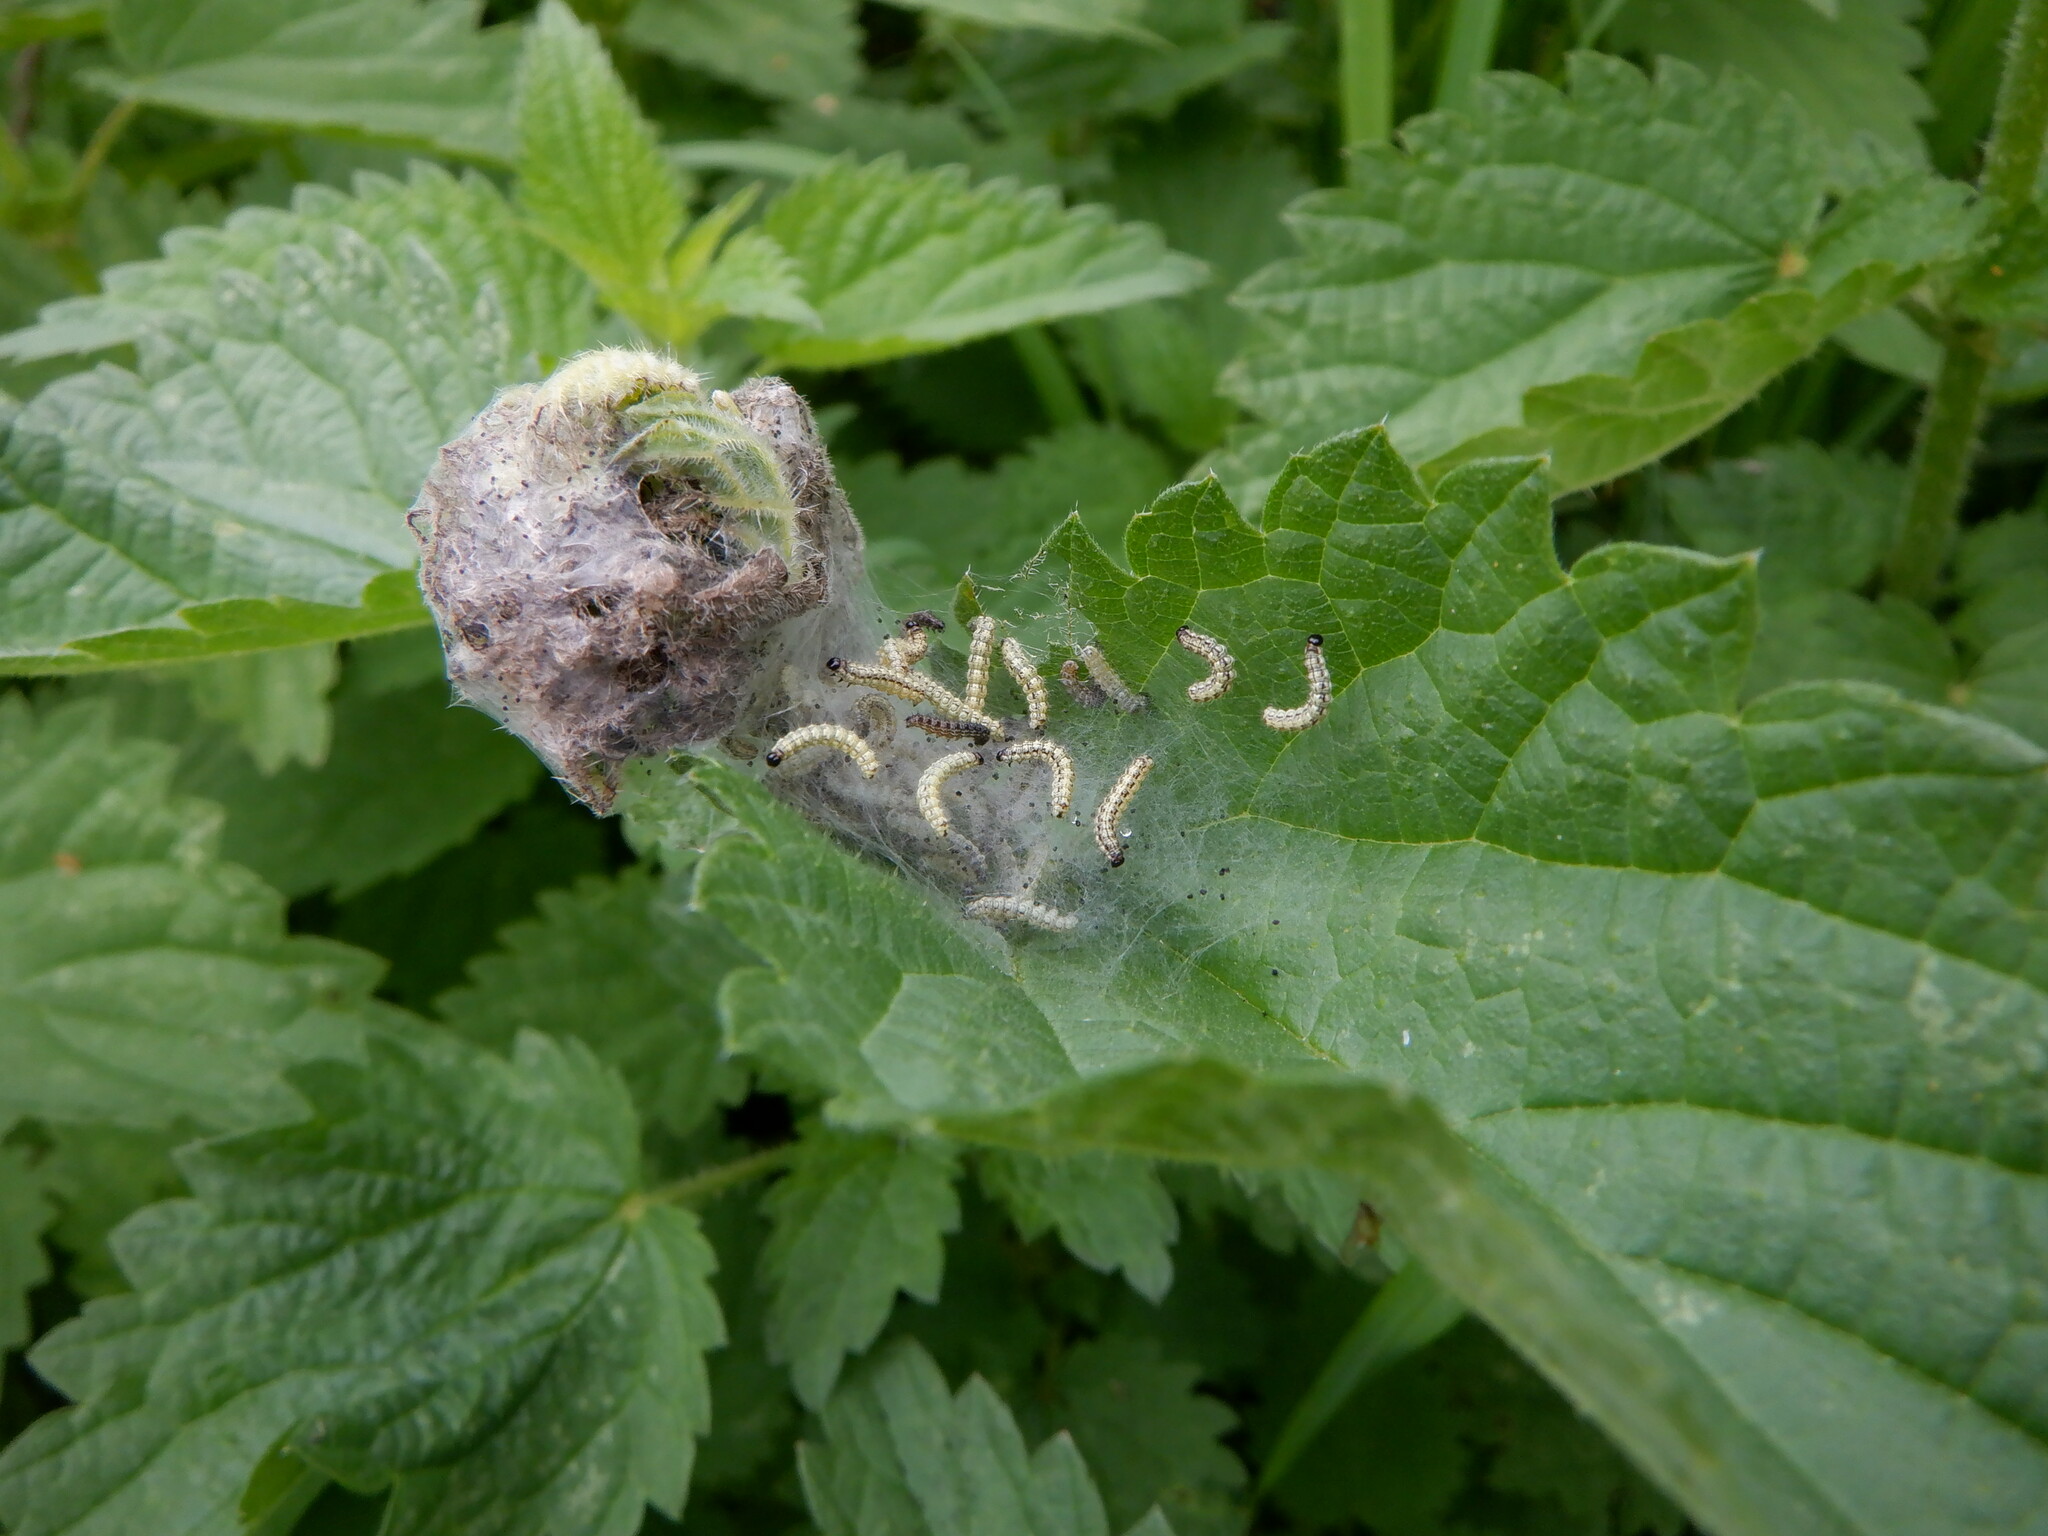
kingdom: Animalia
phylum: Arthropoda
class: Insecta
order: Lepidoptera
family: Nymphalidae
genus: Aglais
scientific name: Aglais urticae
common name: Small tortoiseshell
